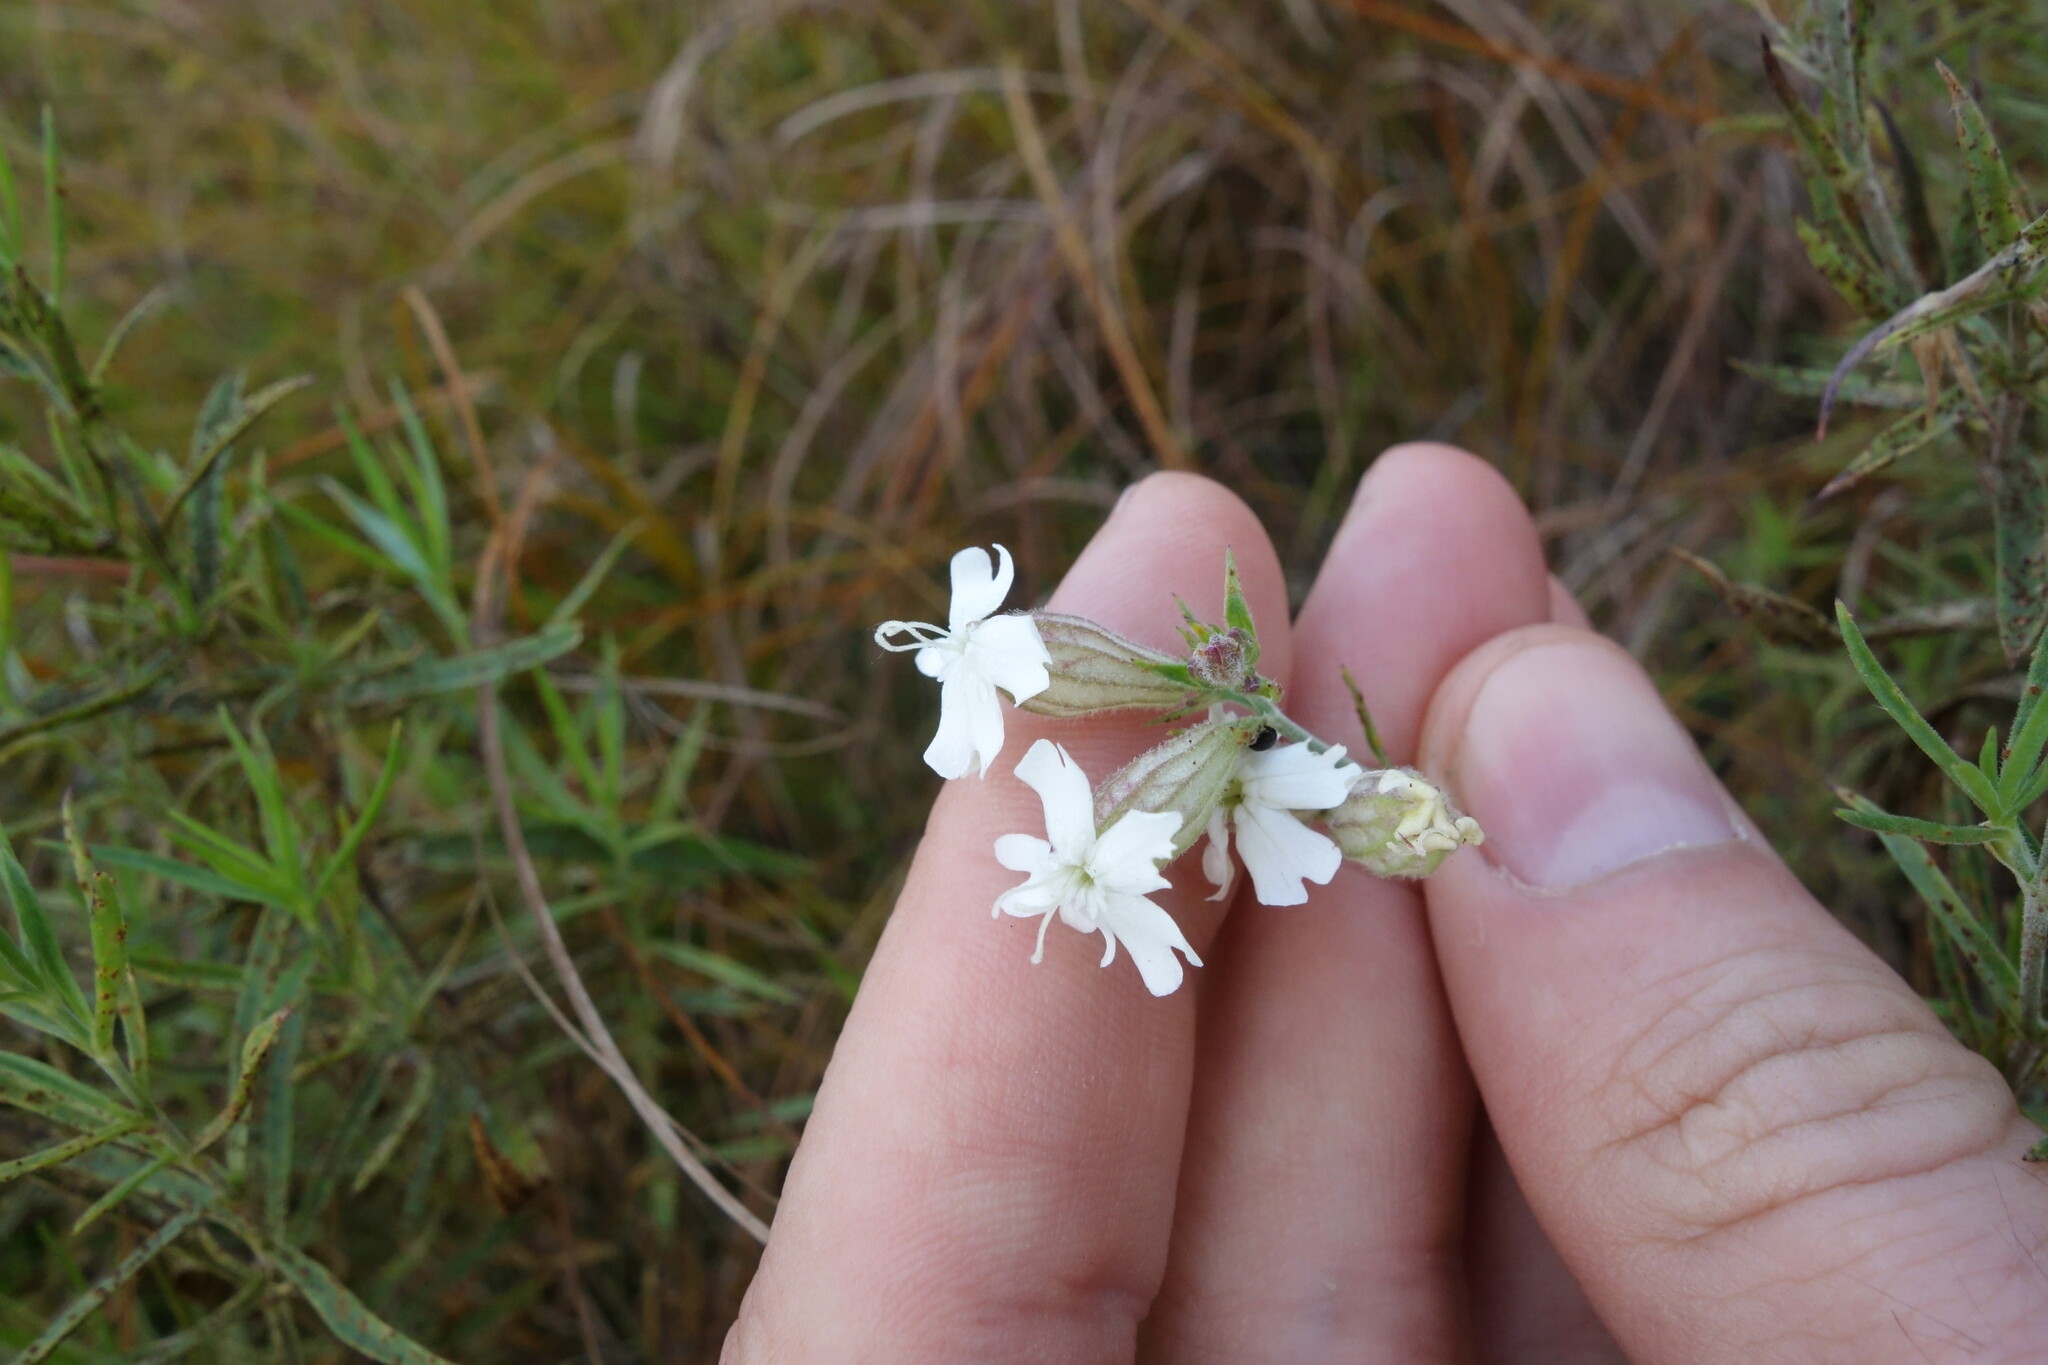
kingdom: Plantae
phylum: Tracheophyta
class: Magnoliopsida
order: Caryophyllales
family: Caryophyllaceae
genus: Silene
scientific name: Silene amoena
